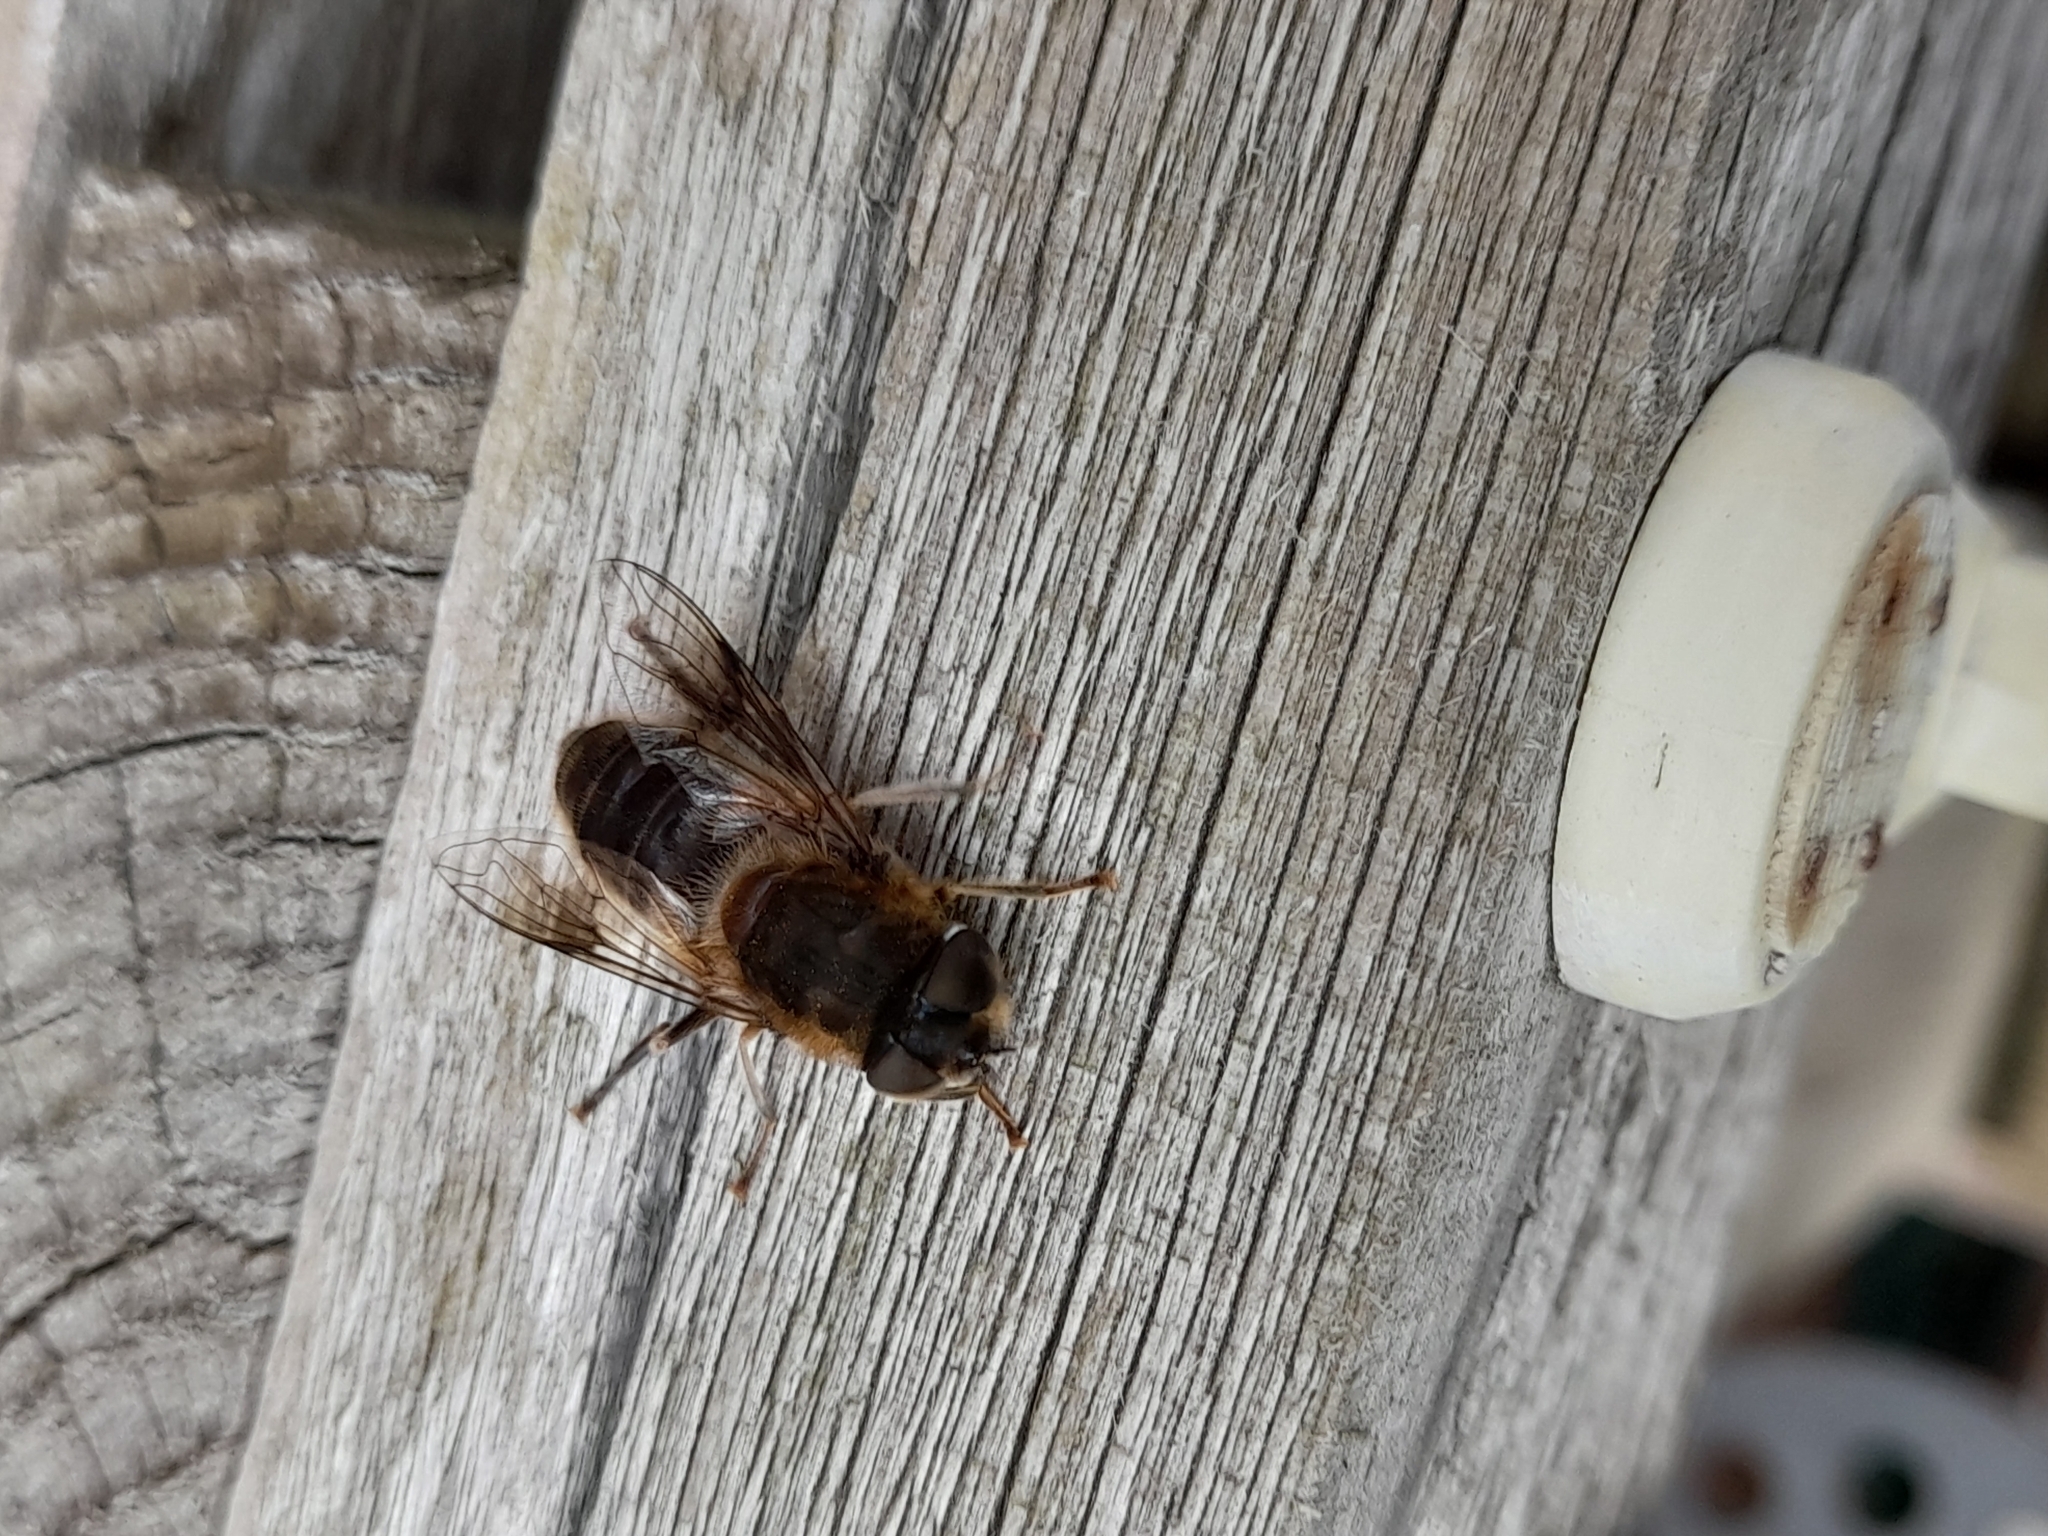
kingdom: Animalia
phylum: Arthropoda
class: Insecta
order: Diptera
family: Syrphidae
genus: Eristalis
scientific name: Eristalis pertinax
